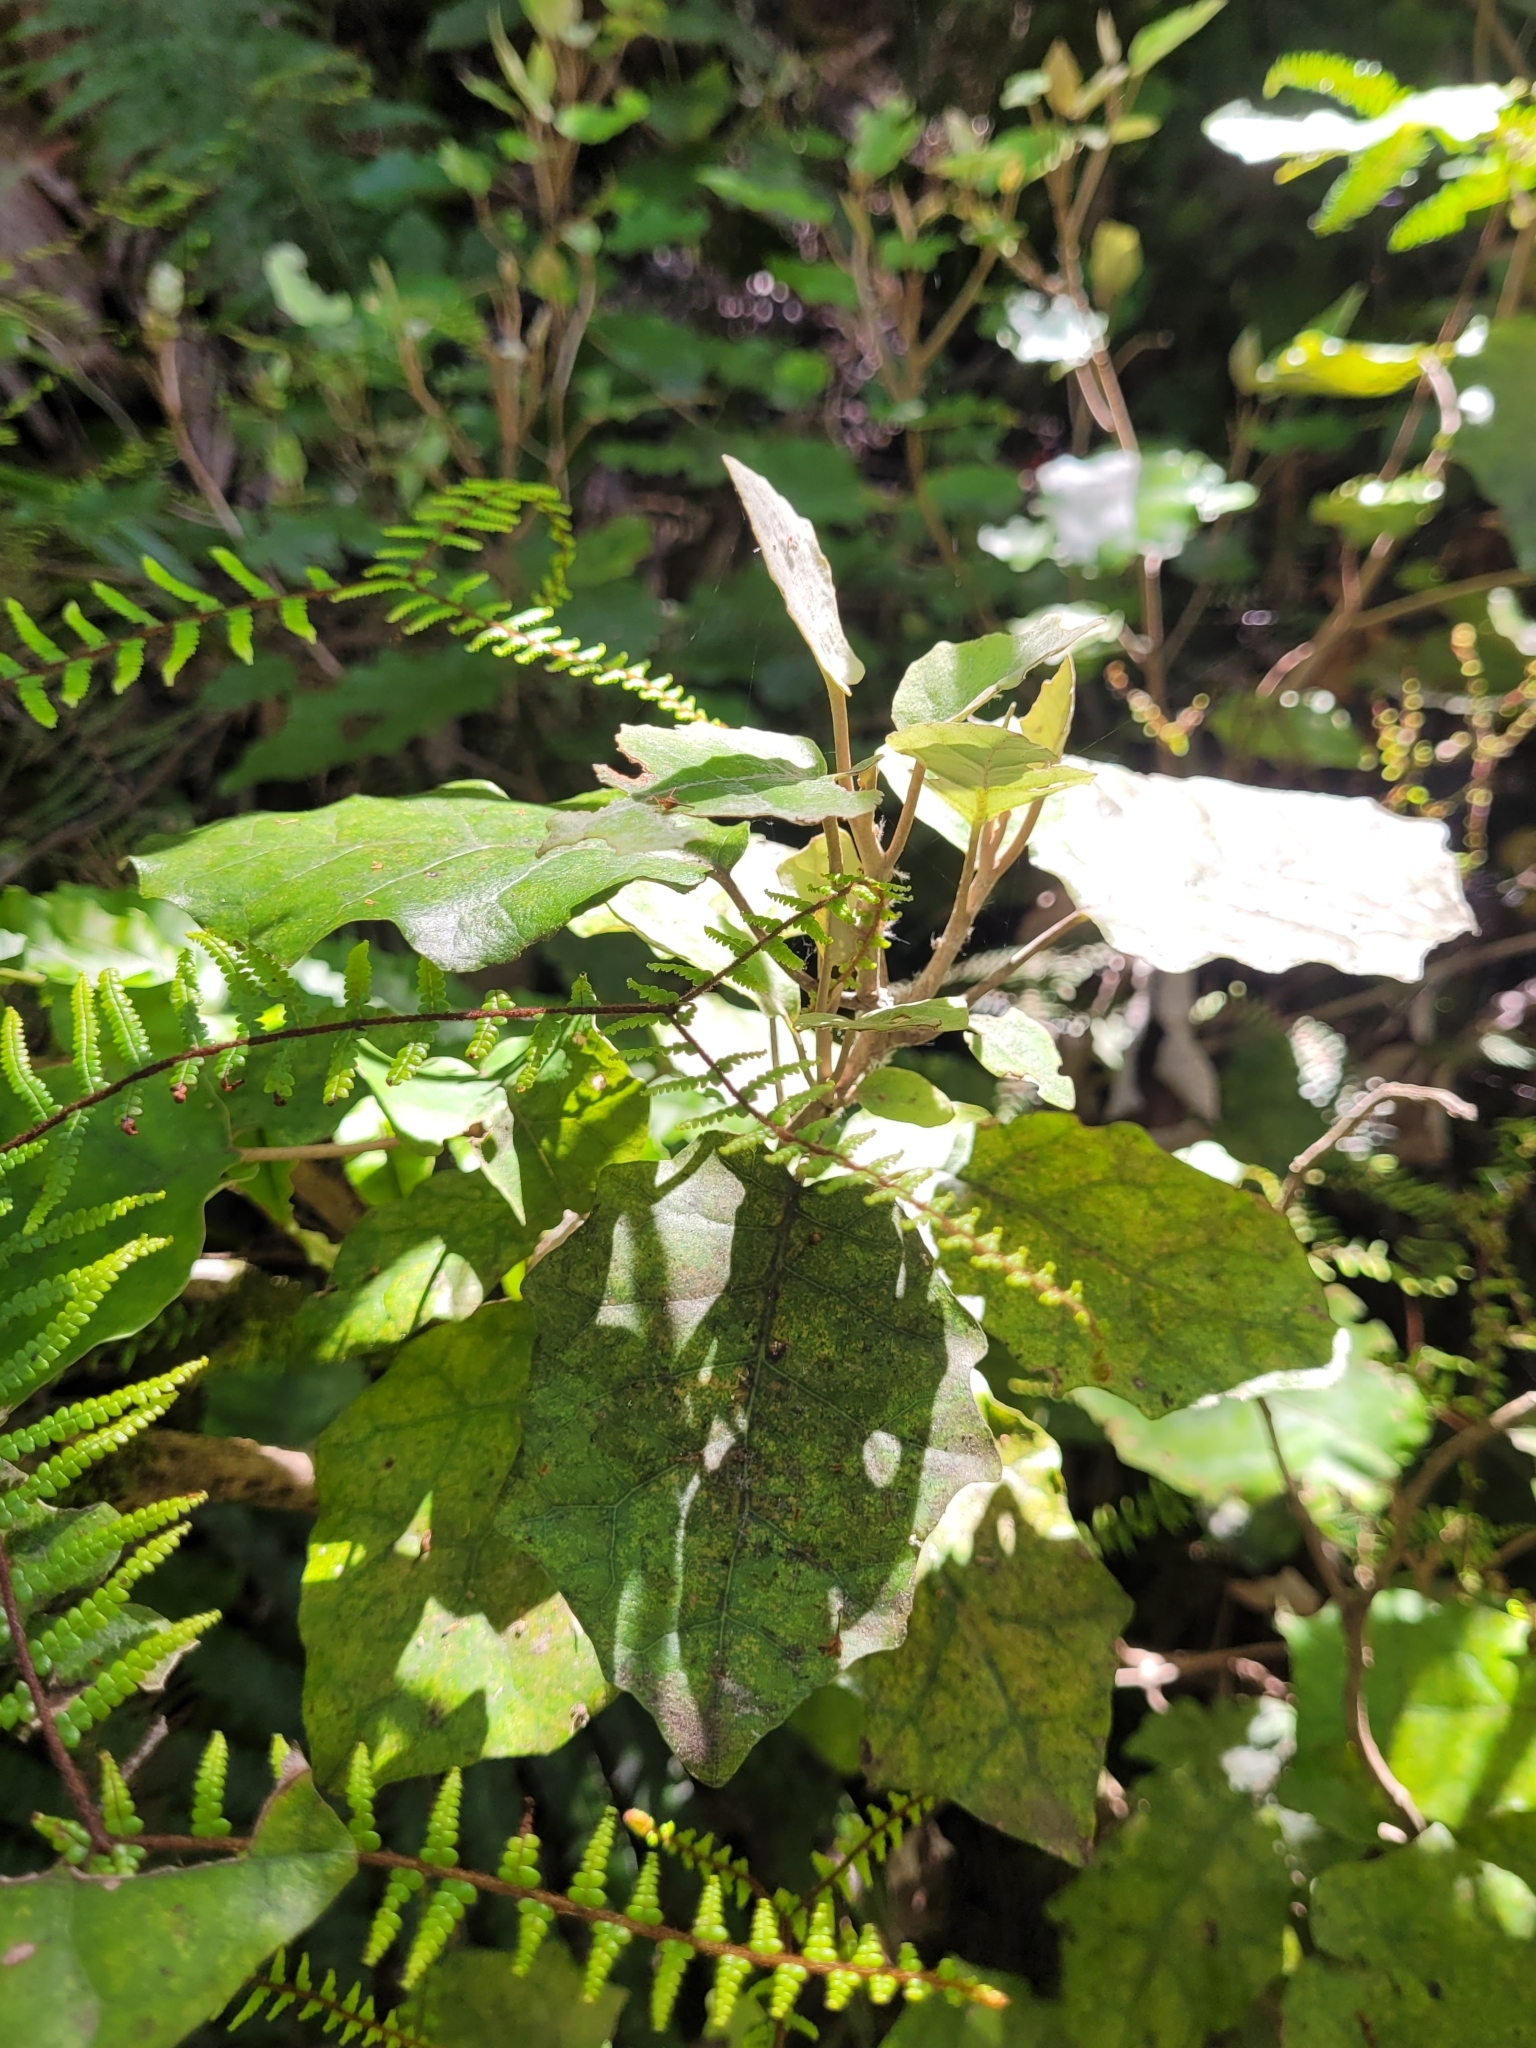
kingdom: Plantae
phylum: Tracheophyta
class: Magnoliopsida
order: Asterales
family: Asteraceae
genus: Brachyglottis
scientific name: Brachyglottis repanda
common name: Hedge ragwort
